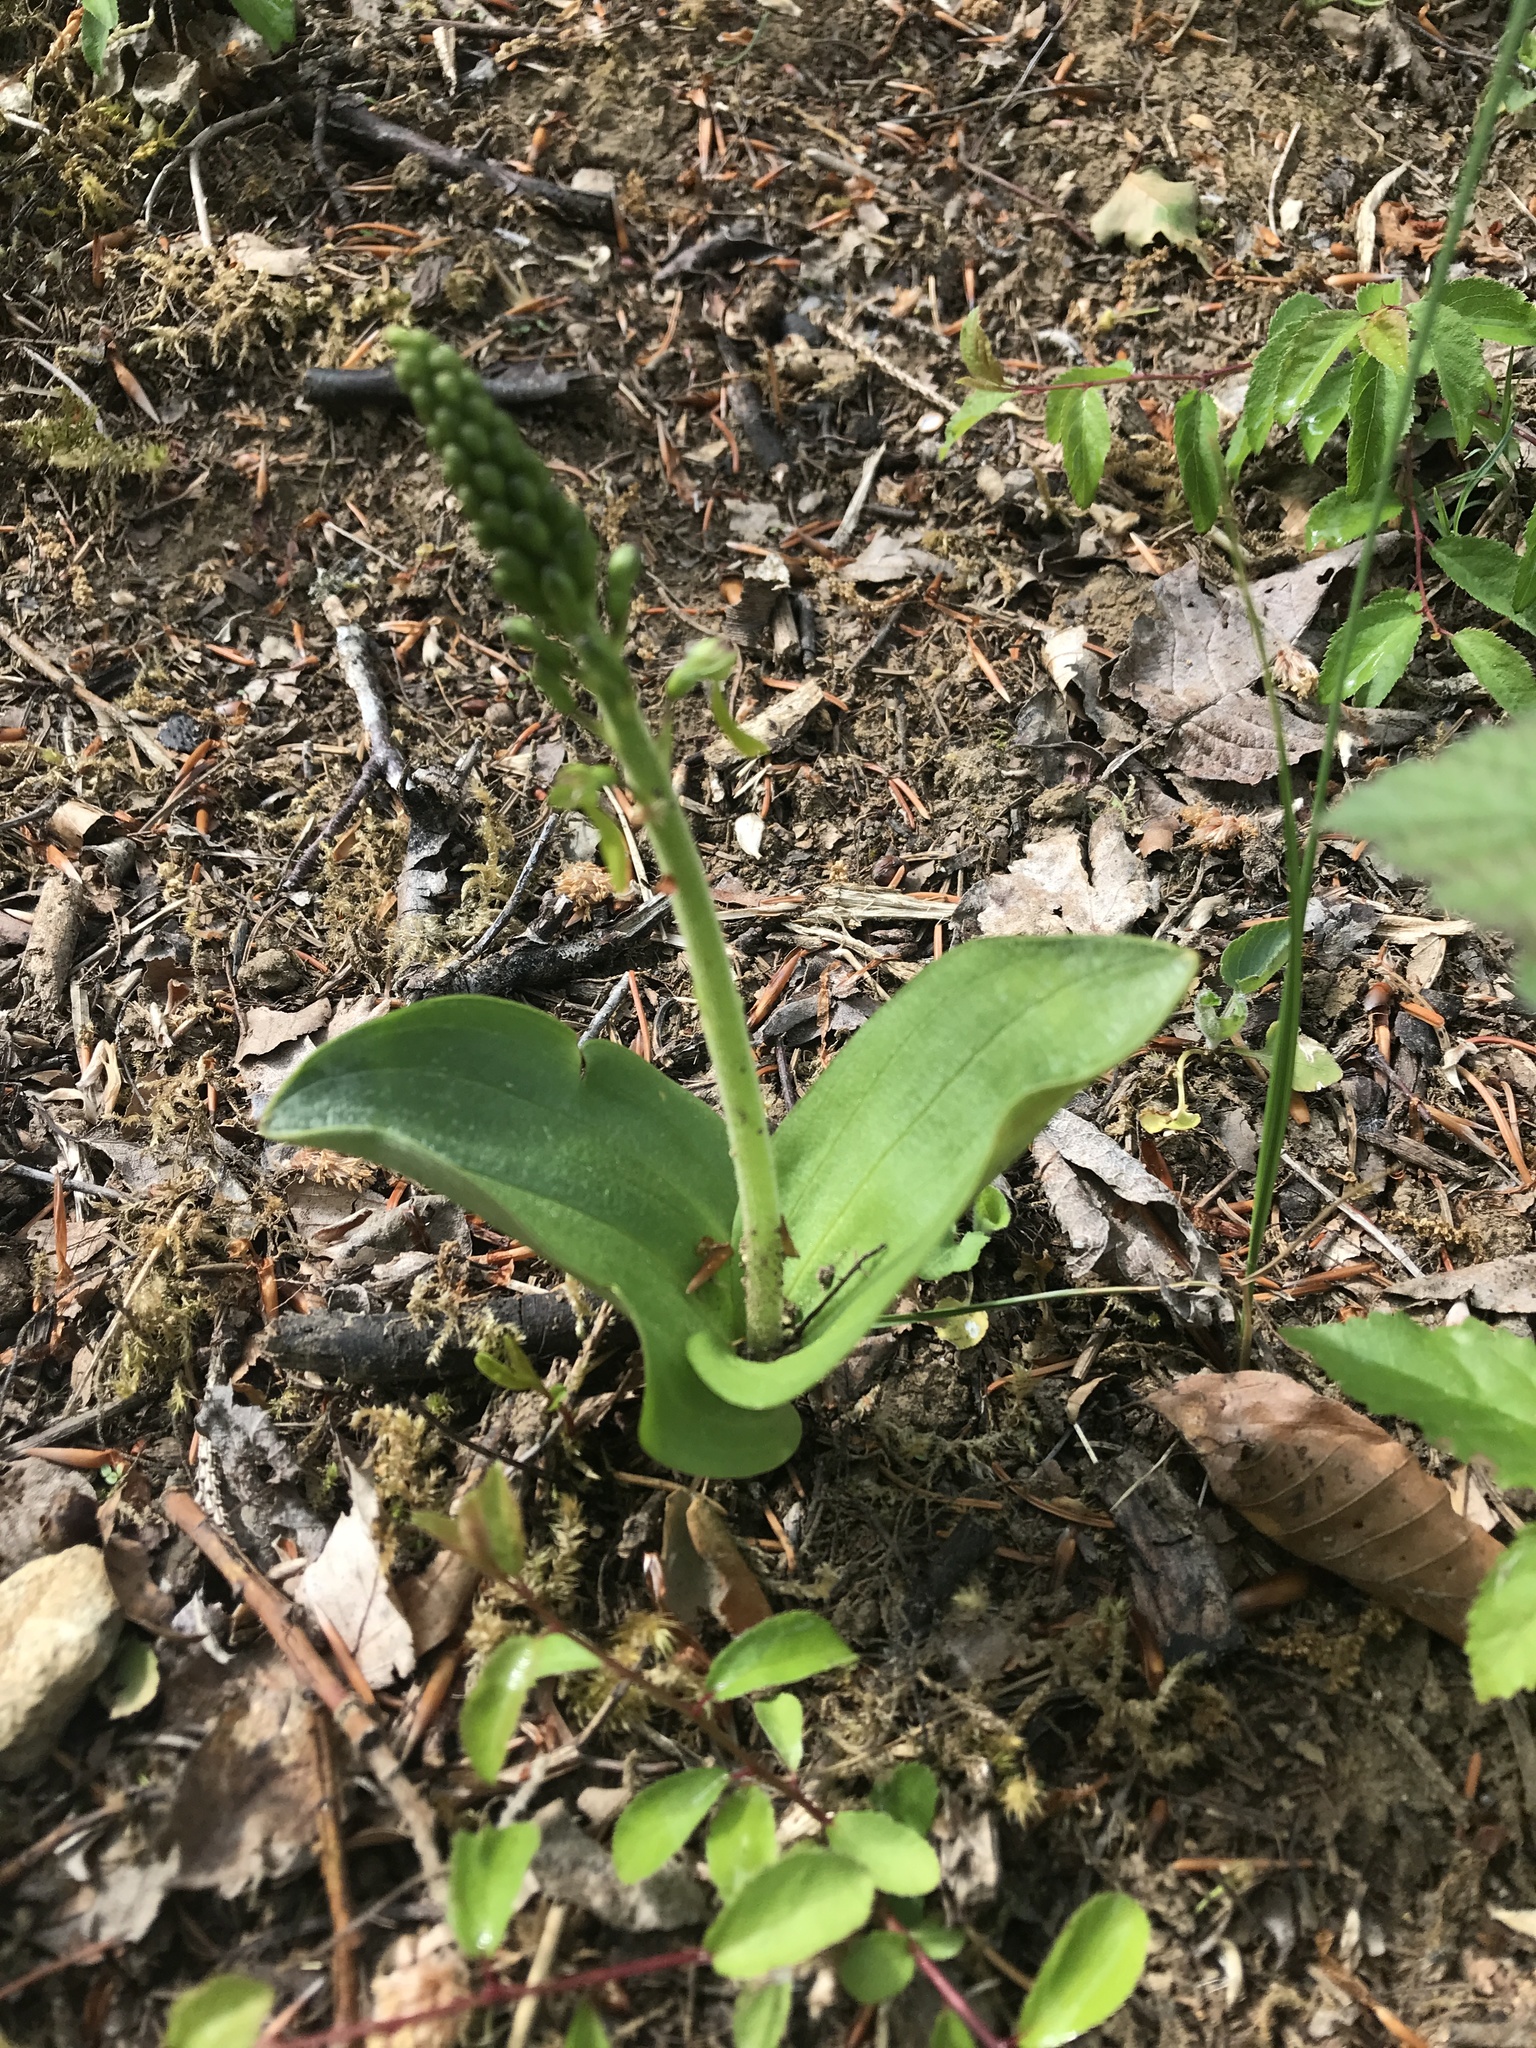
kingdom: Plantae
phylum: Tracheophyta
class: Liliopsida
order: Asparagales
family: Orchidaceae
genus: Neottia
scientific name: Neottia ovata
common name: Common twayblade
